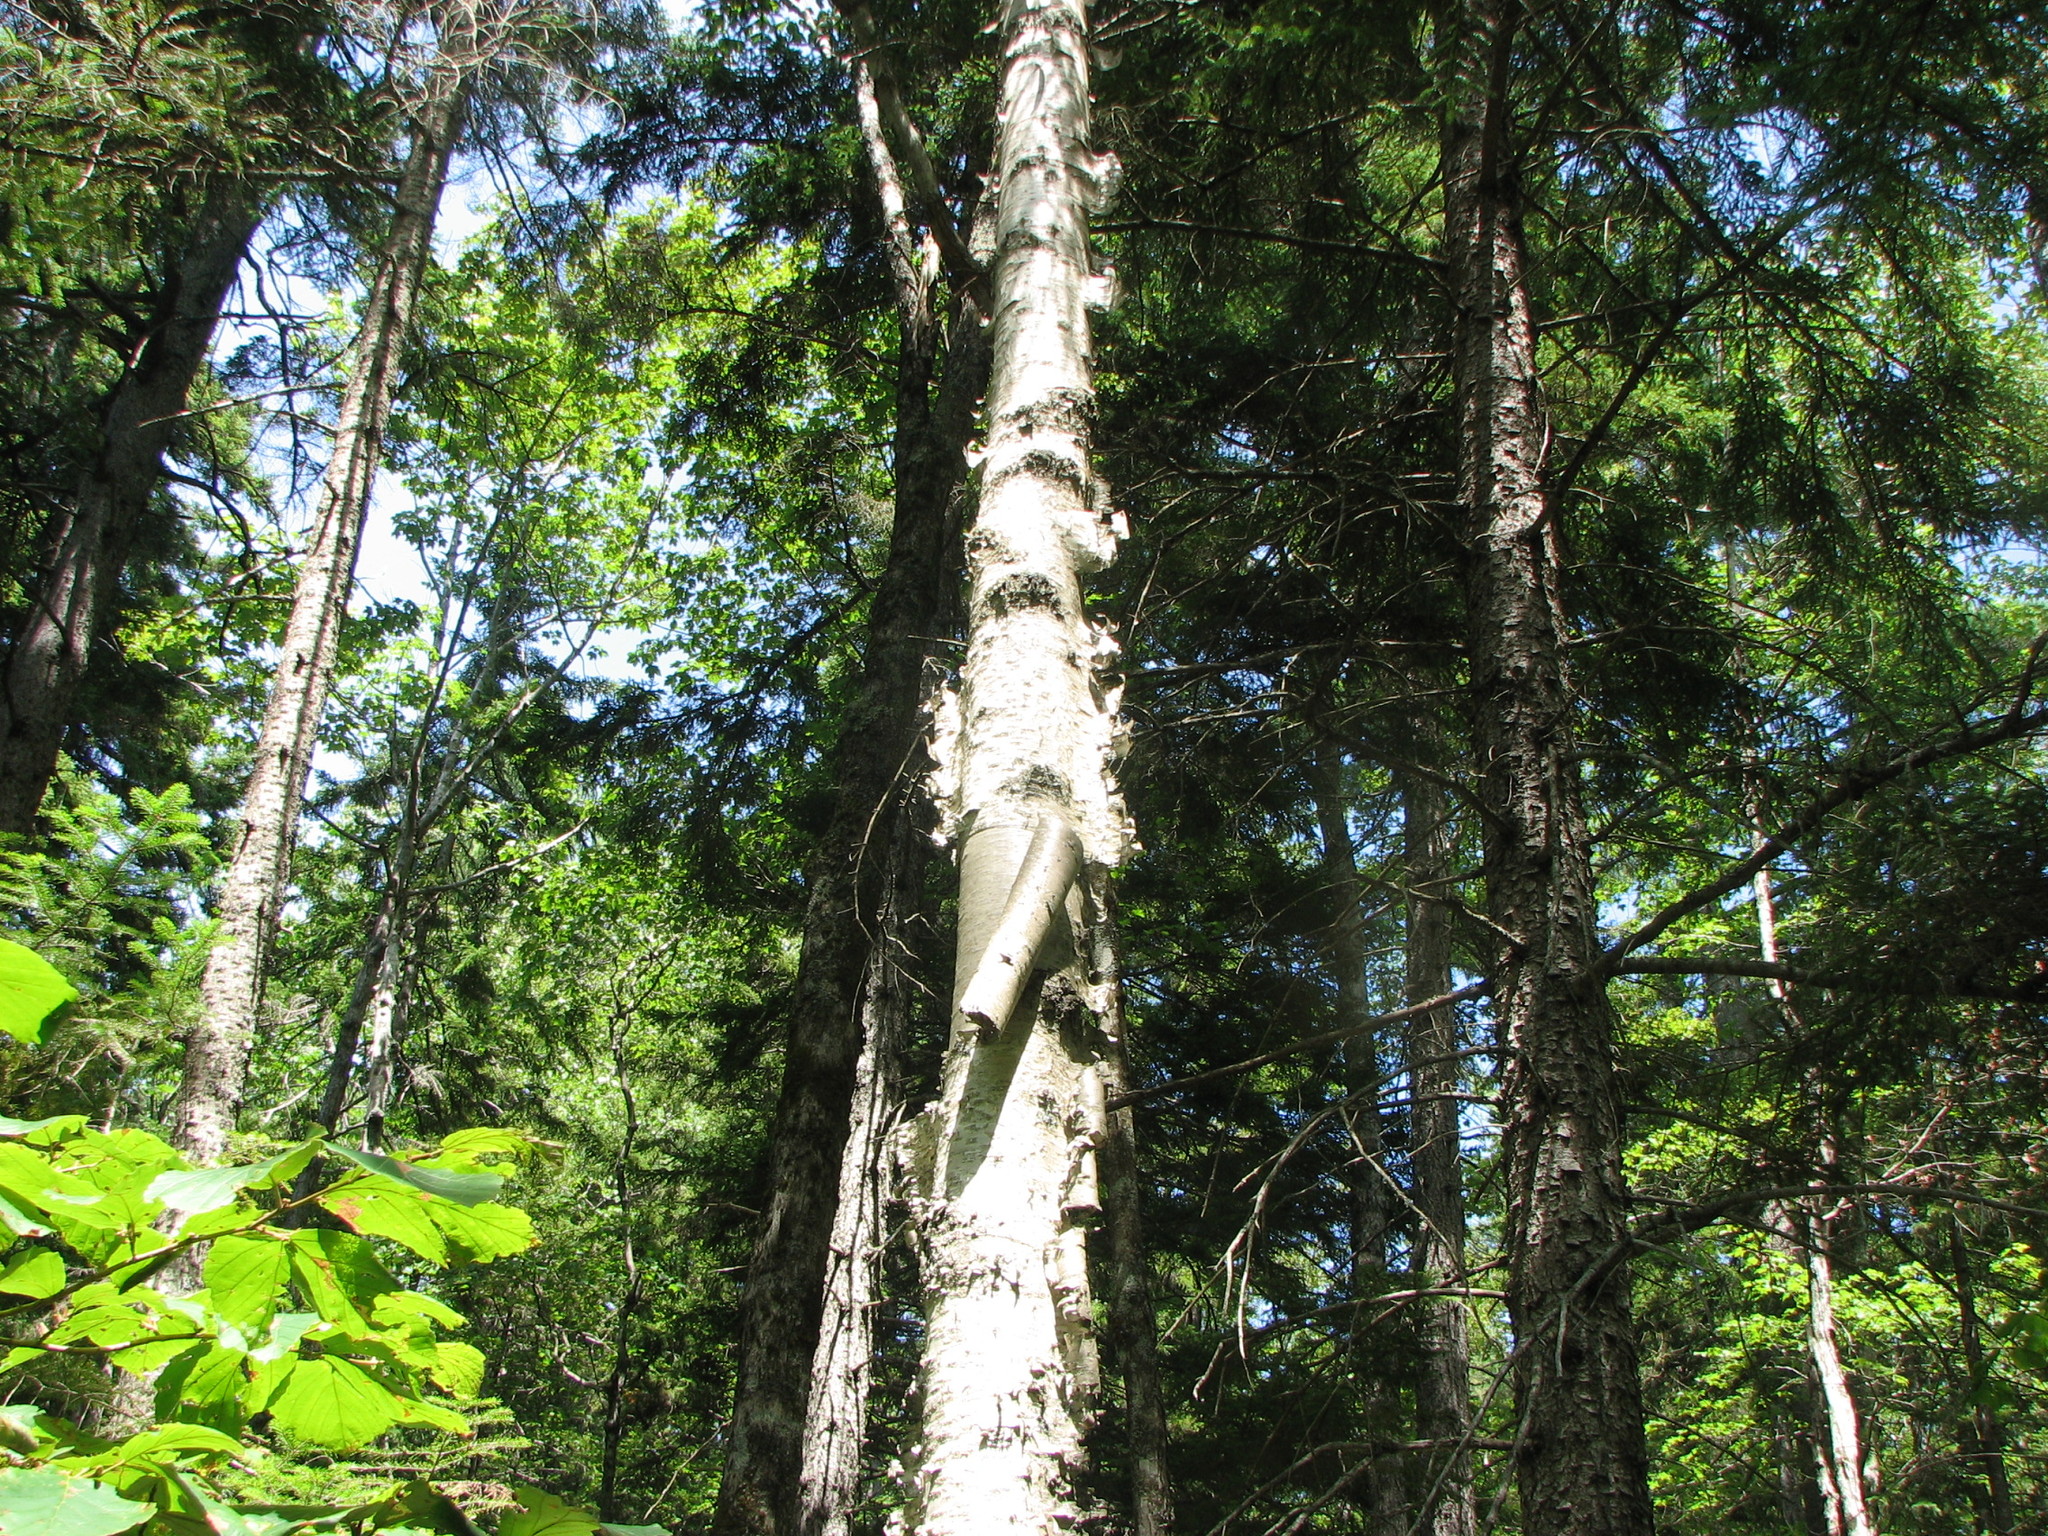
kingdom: Plantae
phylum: Tracheophyta
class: Magnoliopsida
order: Fagales
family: Betulaceae
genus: Betula
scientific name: Betula papyrifera
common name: Paper birch
